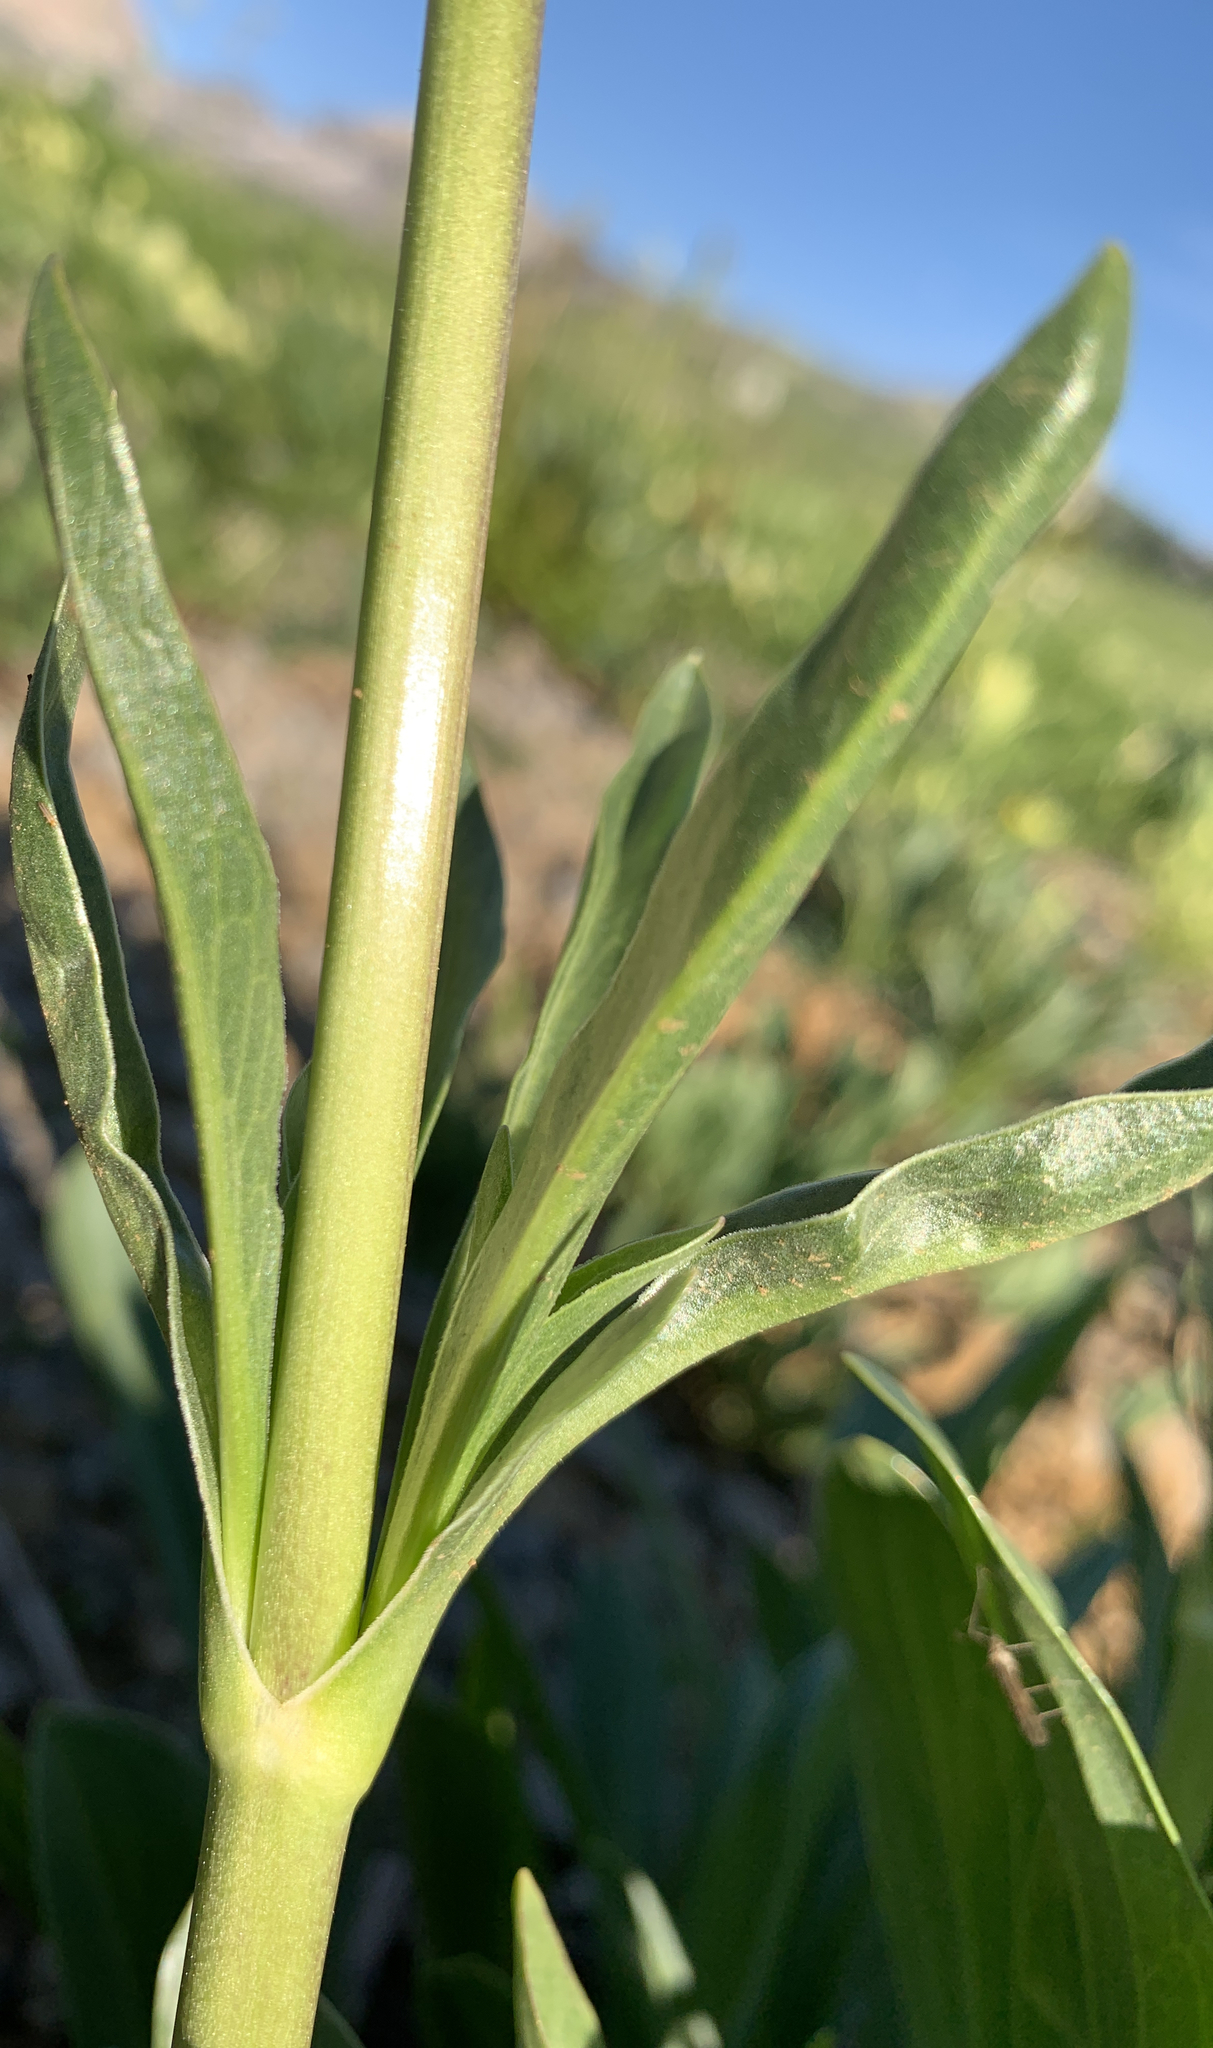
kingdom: Plantae
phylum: Tracheophyta
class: Magnoliopsida
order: Dipsacales
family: Caprifoliaceae
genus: Valeriana
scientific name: Valeriana edulis
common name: Taproot valerian
